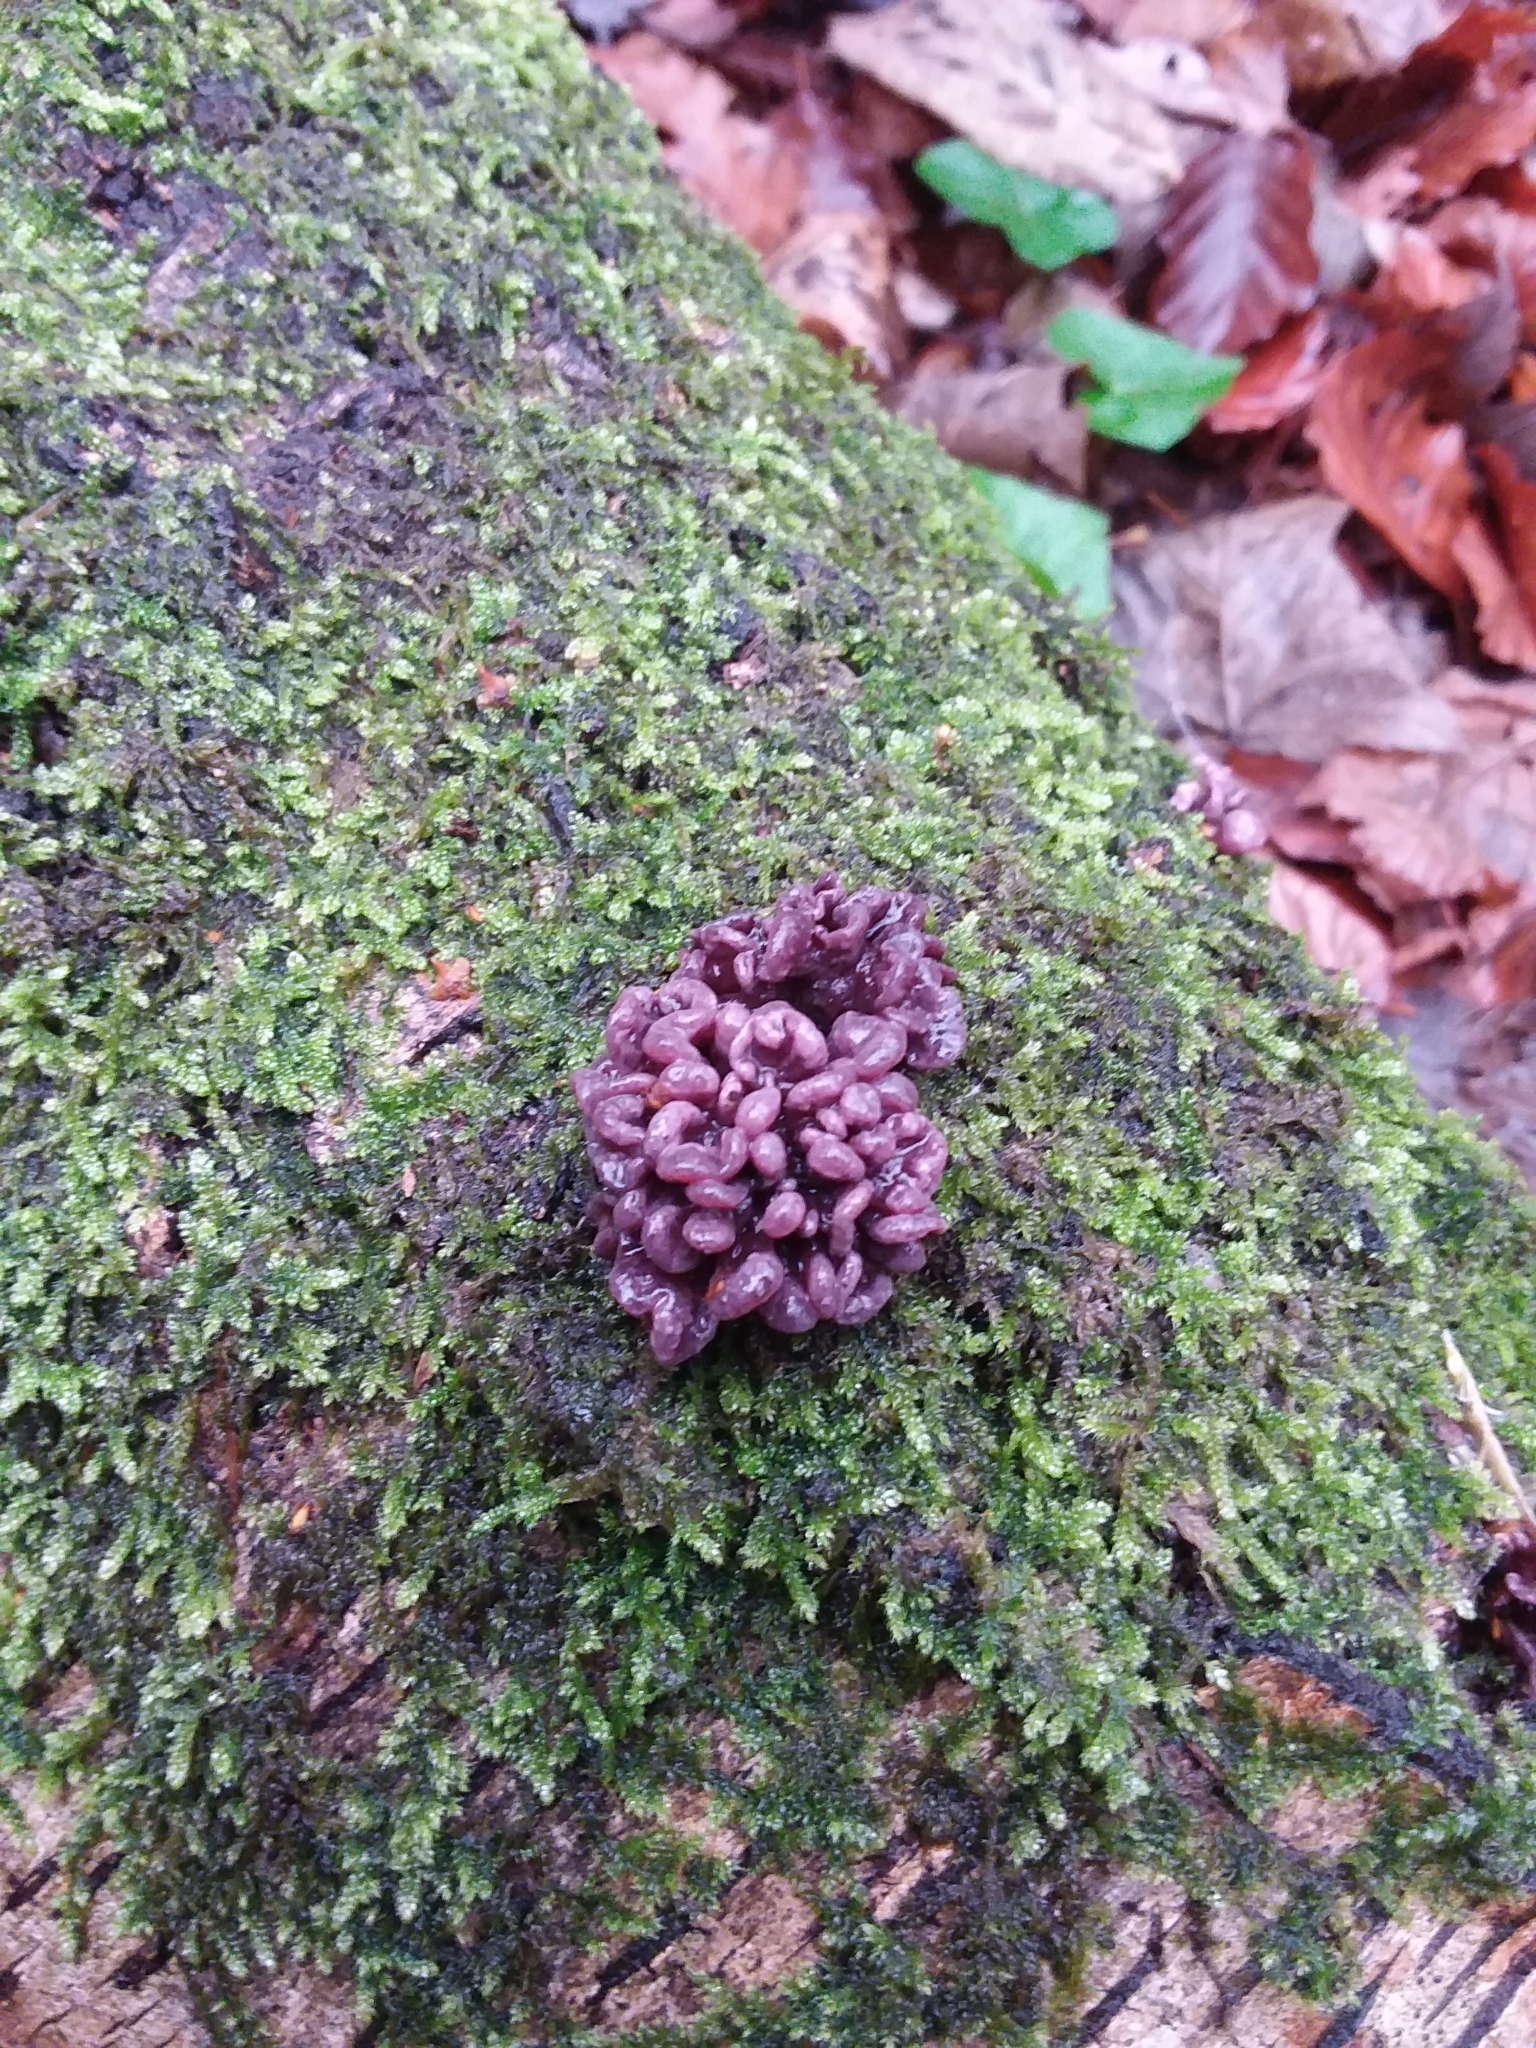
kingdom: Fungi
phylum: Ascomycota
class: Leotiomycetes
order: Helotiales
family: Gelatinodiscaceae
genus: Ascocoryne
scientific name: Ascocoryne sarcoides
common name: Purple jellydisc
